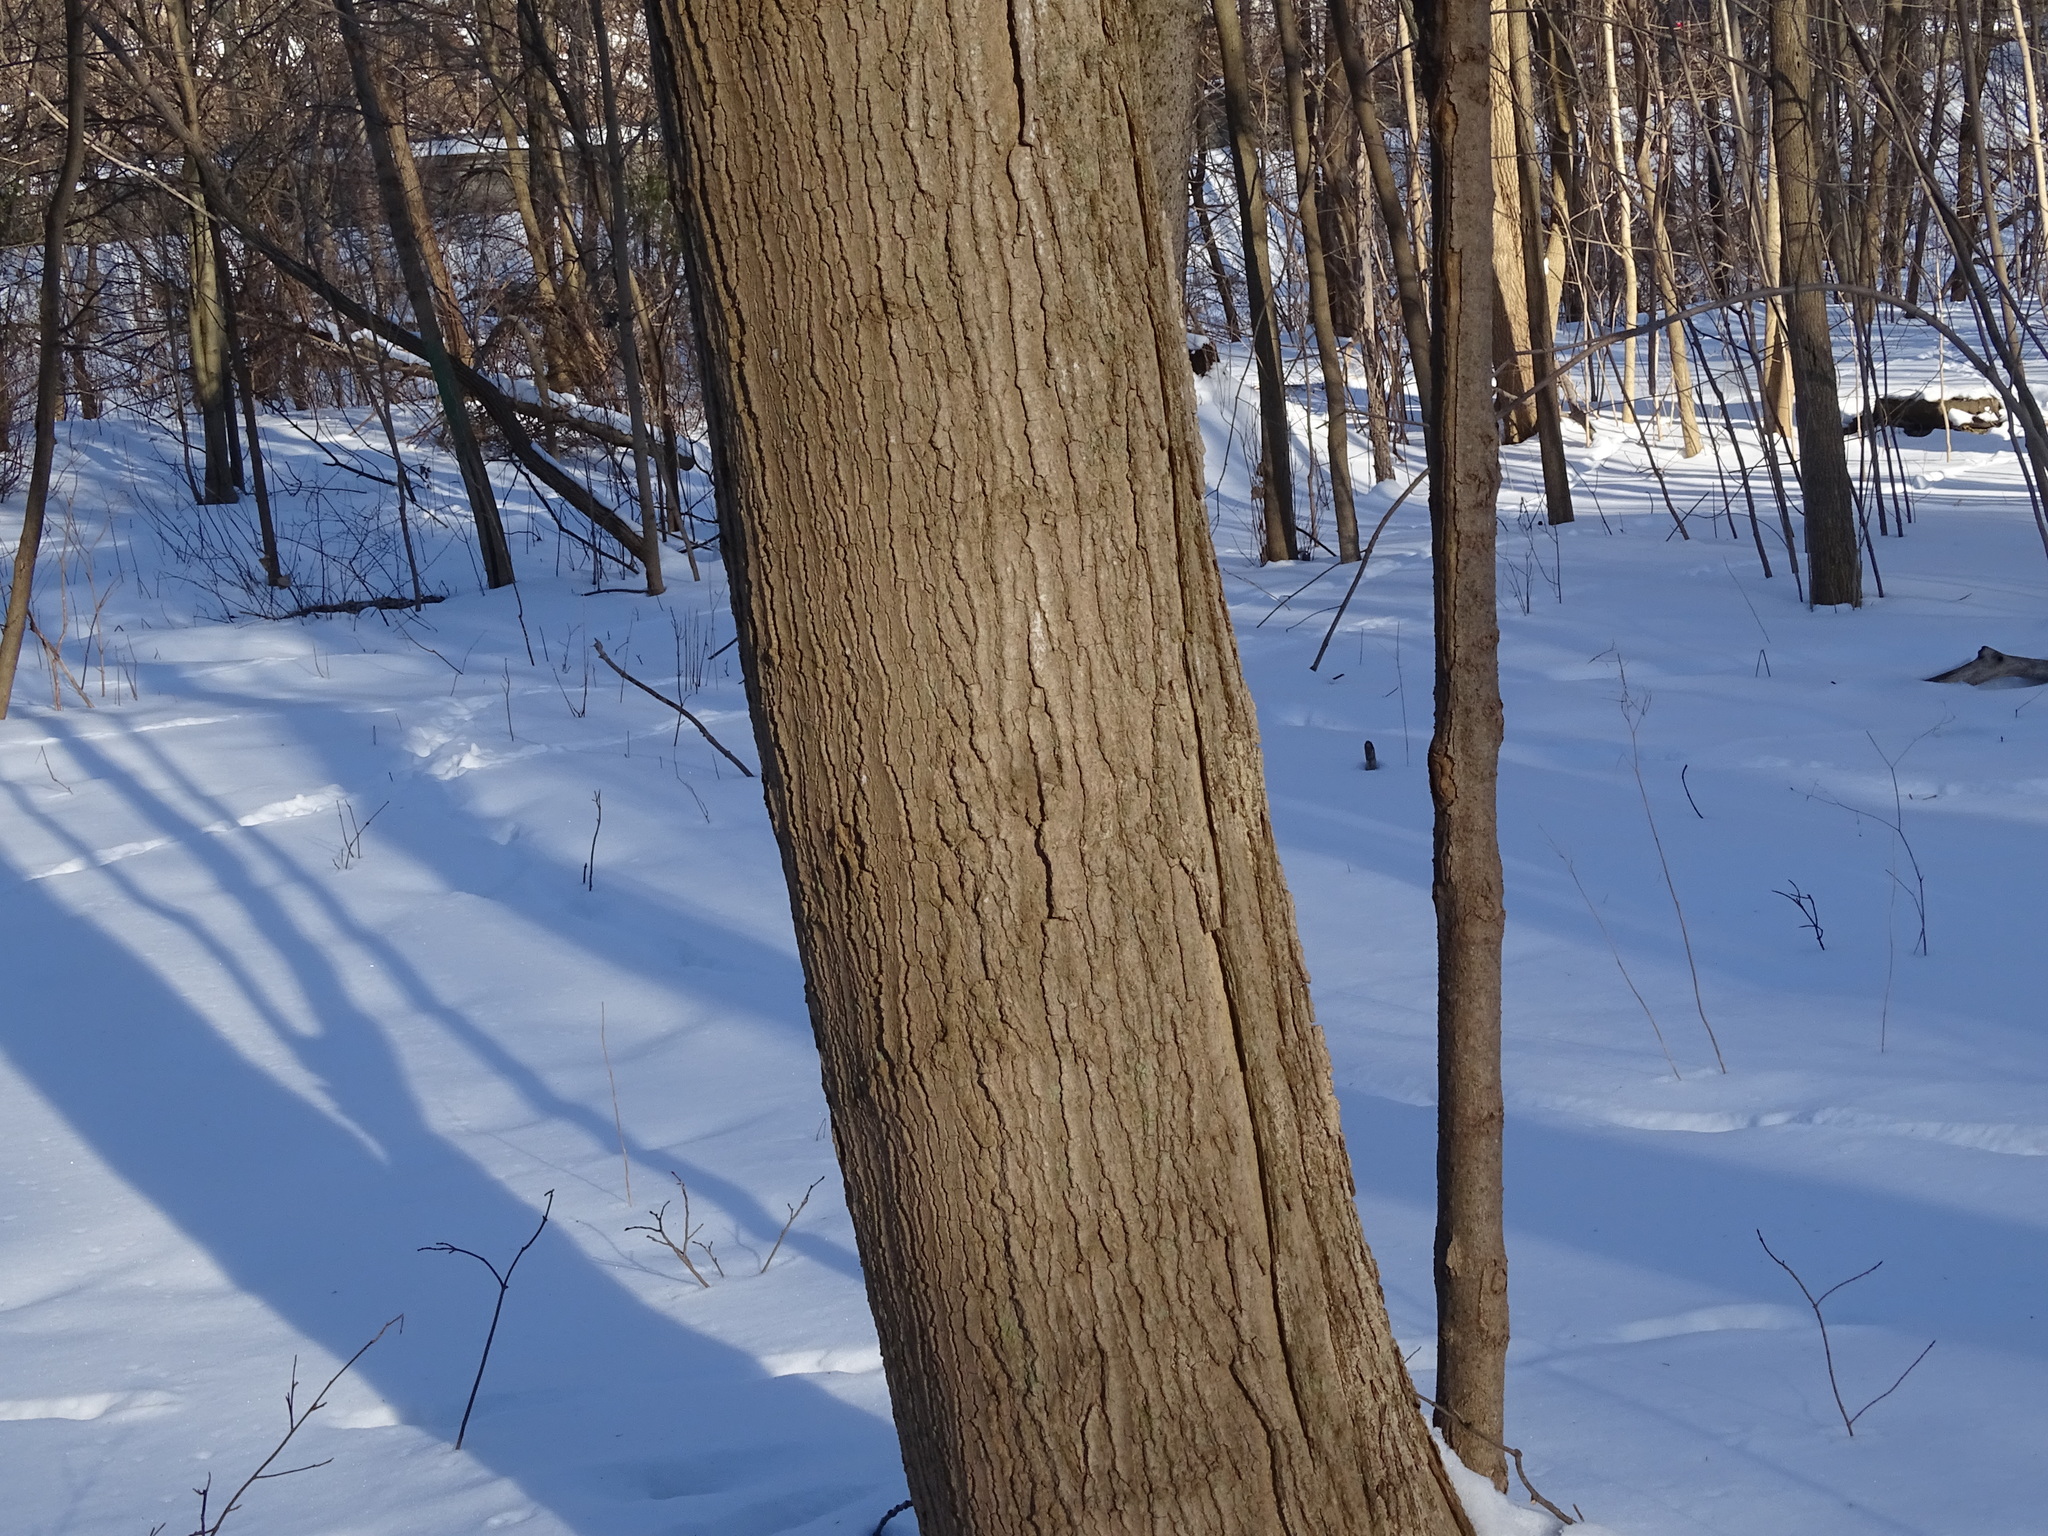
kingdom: Plantae
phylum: Tracheophyta
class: Magnoliopsida
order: Sapindales
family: Sapindaceae
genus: Acer
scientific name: Acer saccharum
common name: Sugar maple
